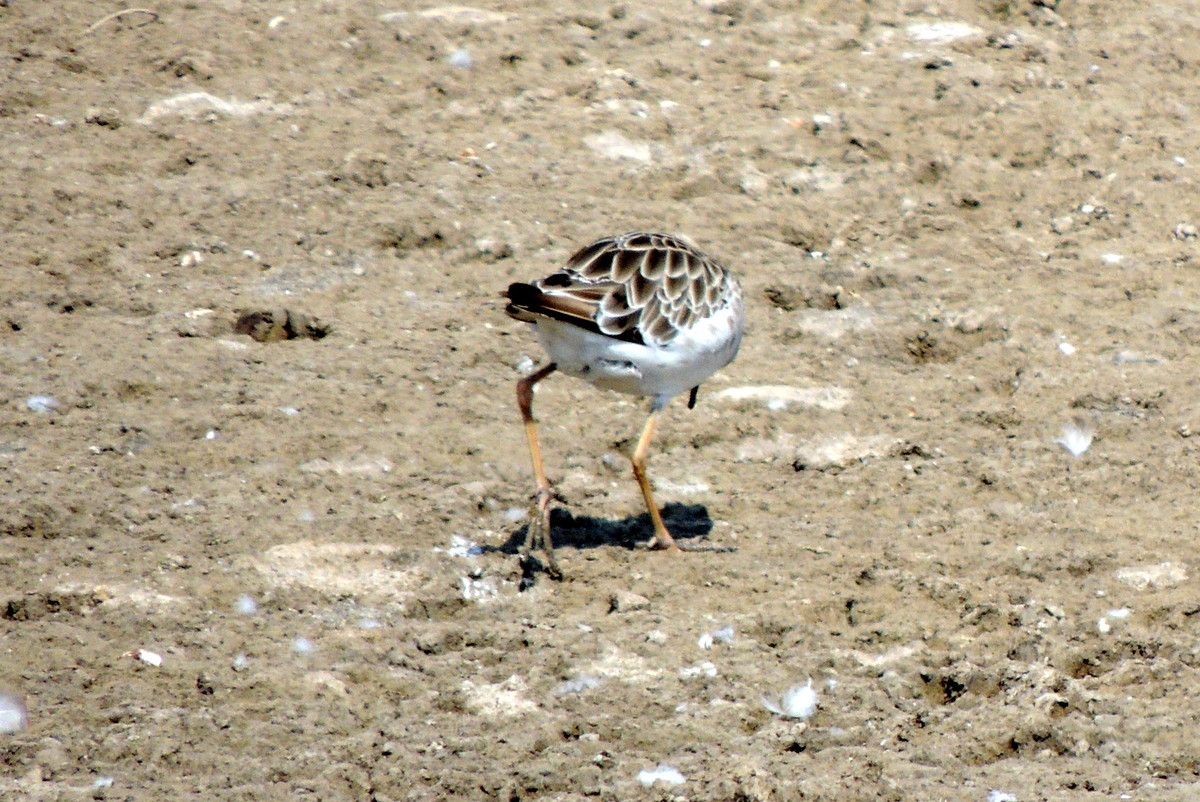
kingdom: Animalia
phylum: Chordata
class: Aves
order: Charadriiformes
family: Scolopacidae
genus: Calidris
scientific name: Calidris pugnax
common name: Ruff
